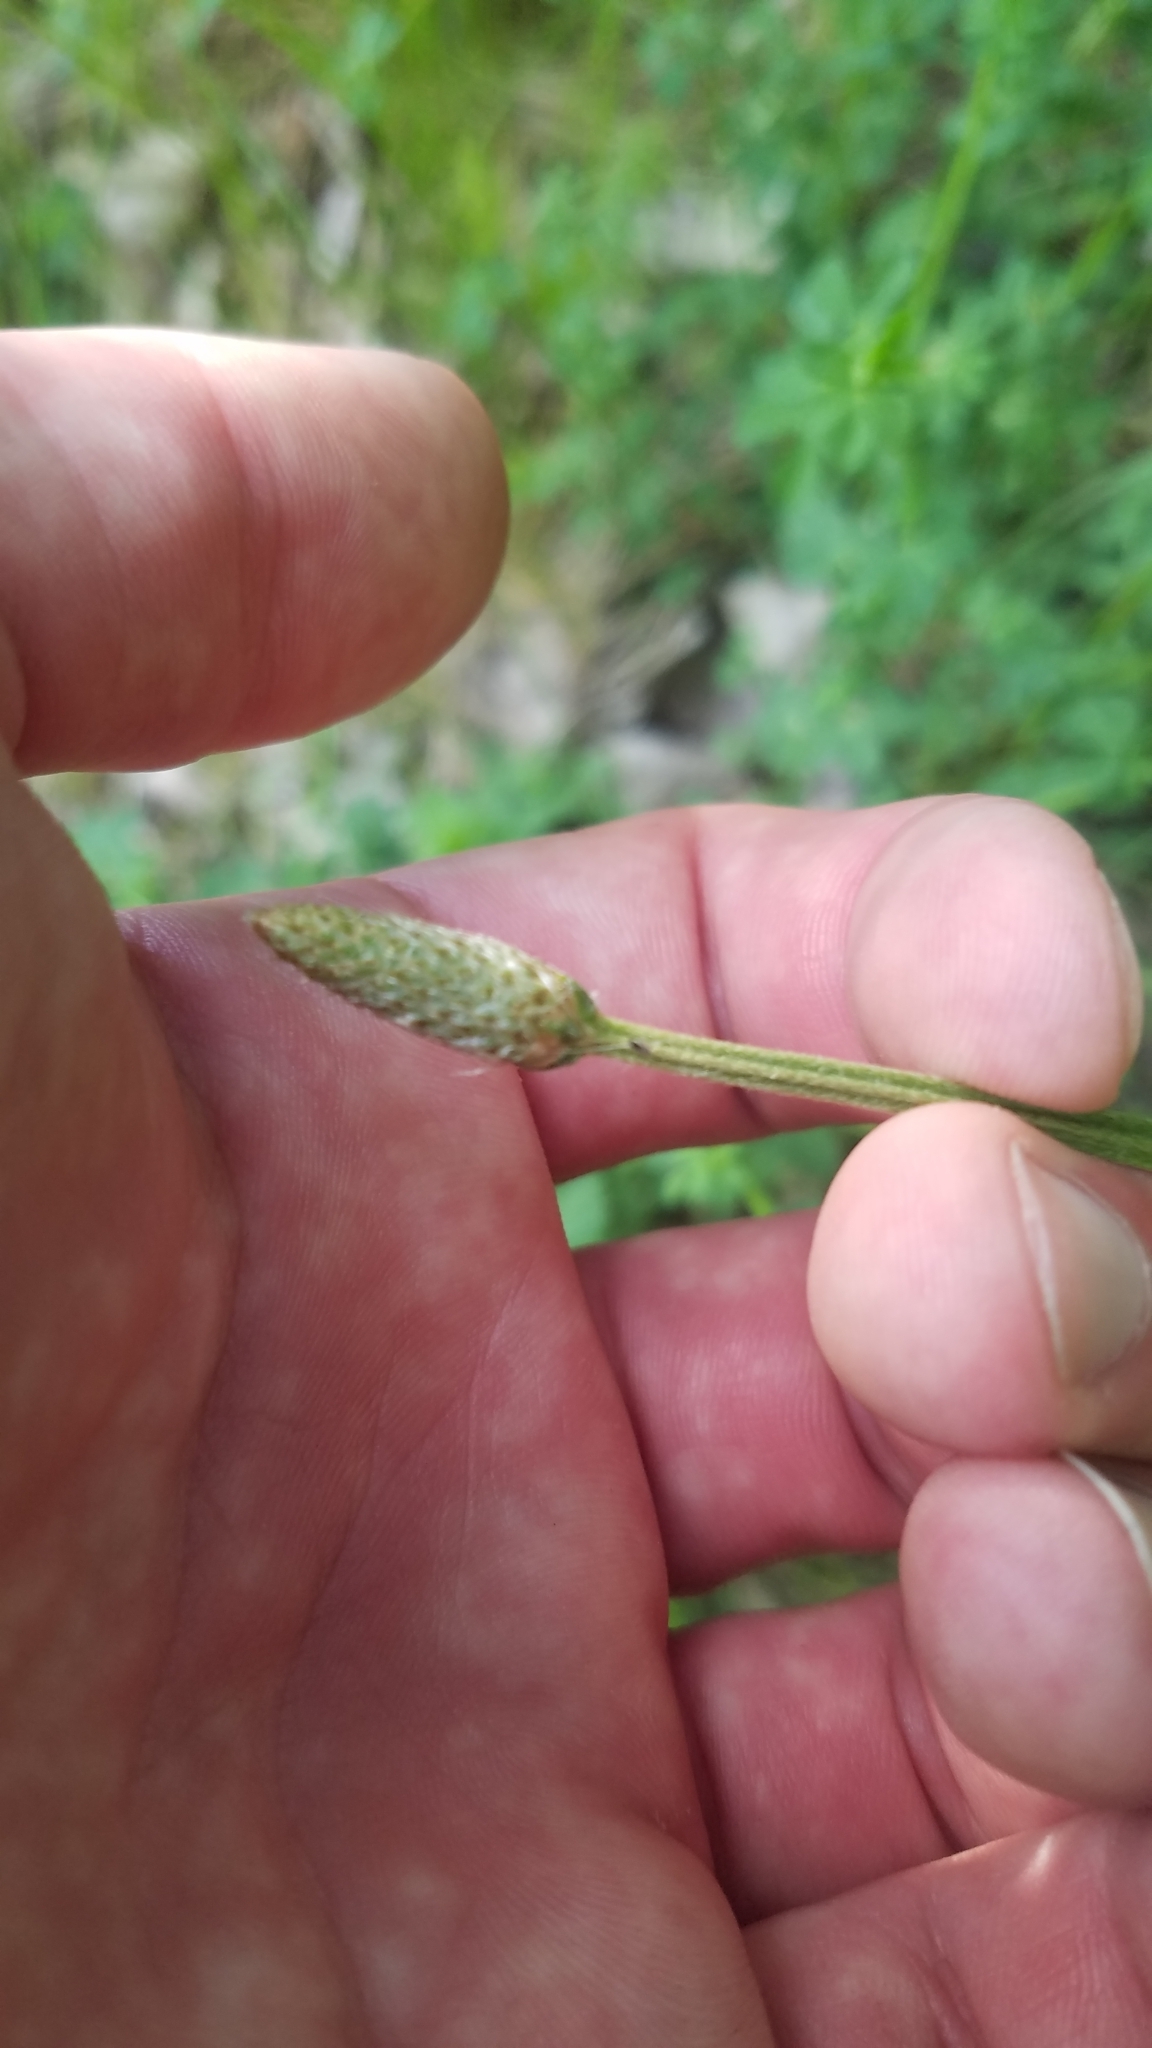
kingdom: Plantae
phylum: Tracheophyta
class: Magnoliopsida
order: Lamiales
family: Plantaginaceae
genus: Plantago
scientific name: Plantago lanceolata
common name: Ribwort plantain
